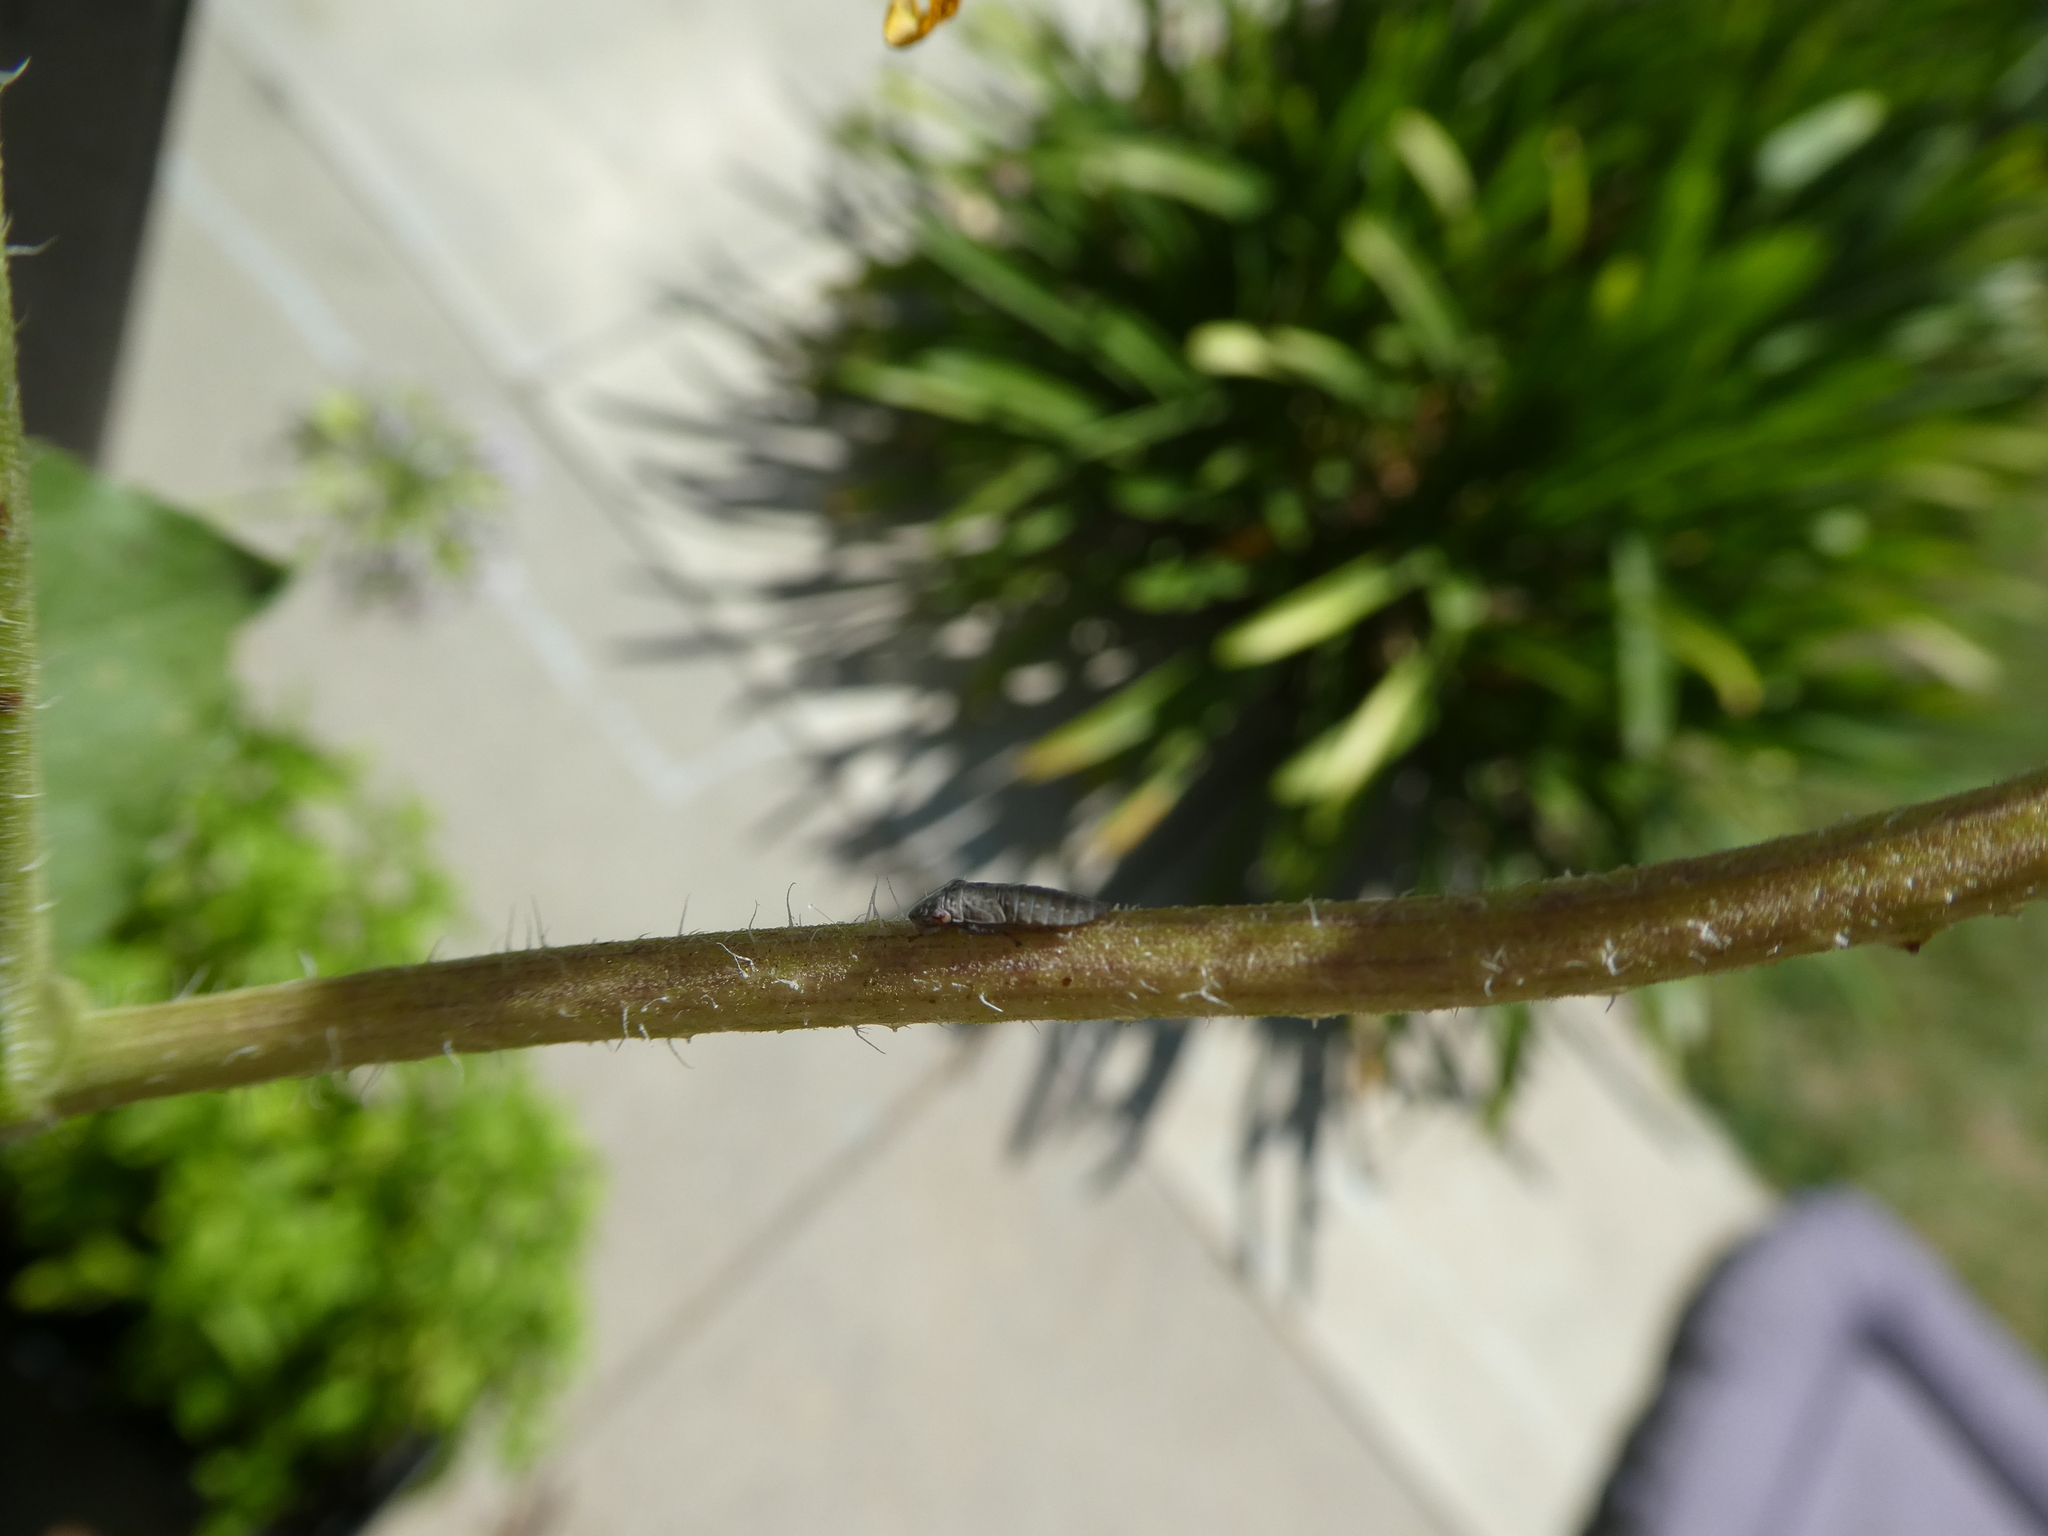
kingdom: Animalia
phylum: Arthropoda
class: Insecta
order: Hemiptera
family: Cicadellidae
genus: Homalodisca
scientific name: Homalodisca vitripennis
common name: Glassy-winged sharpshooter
